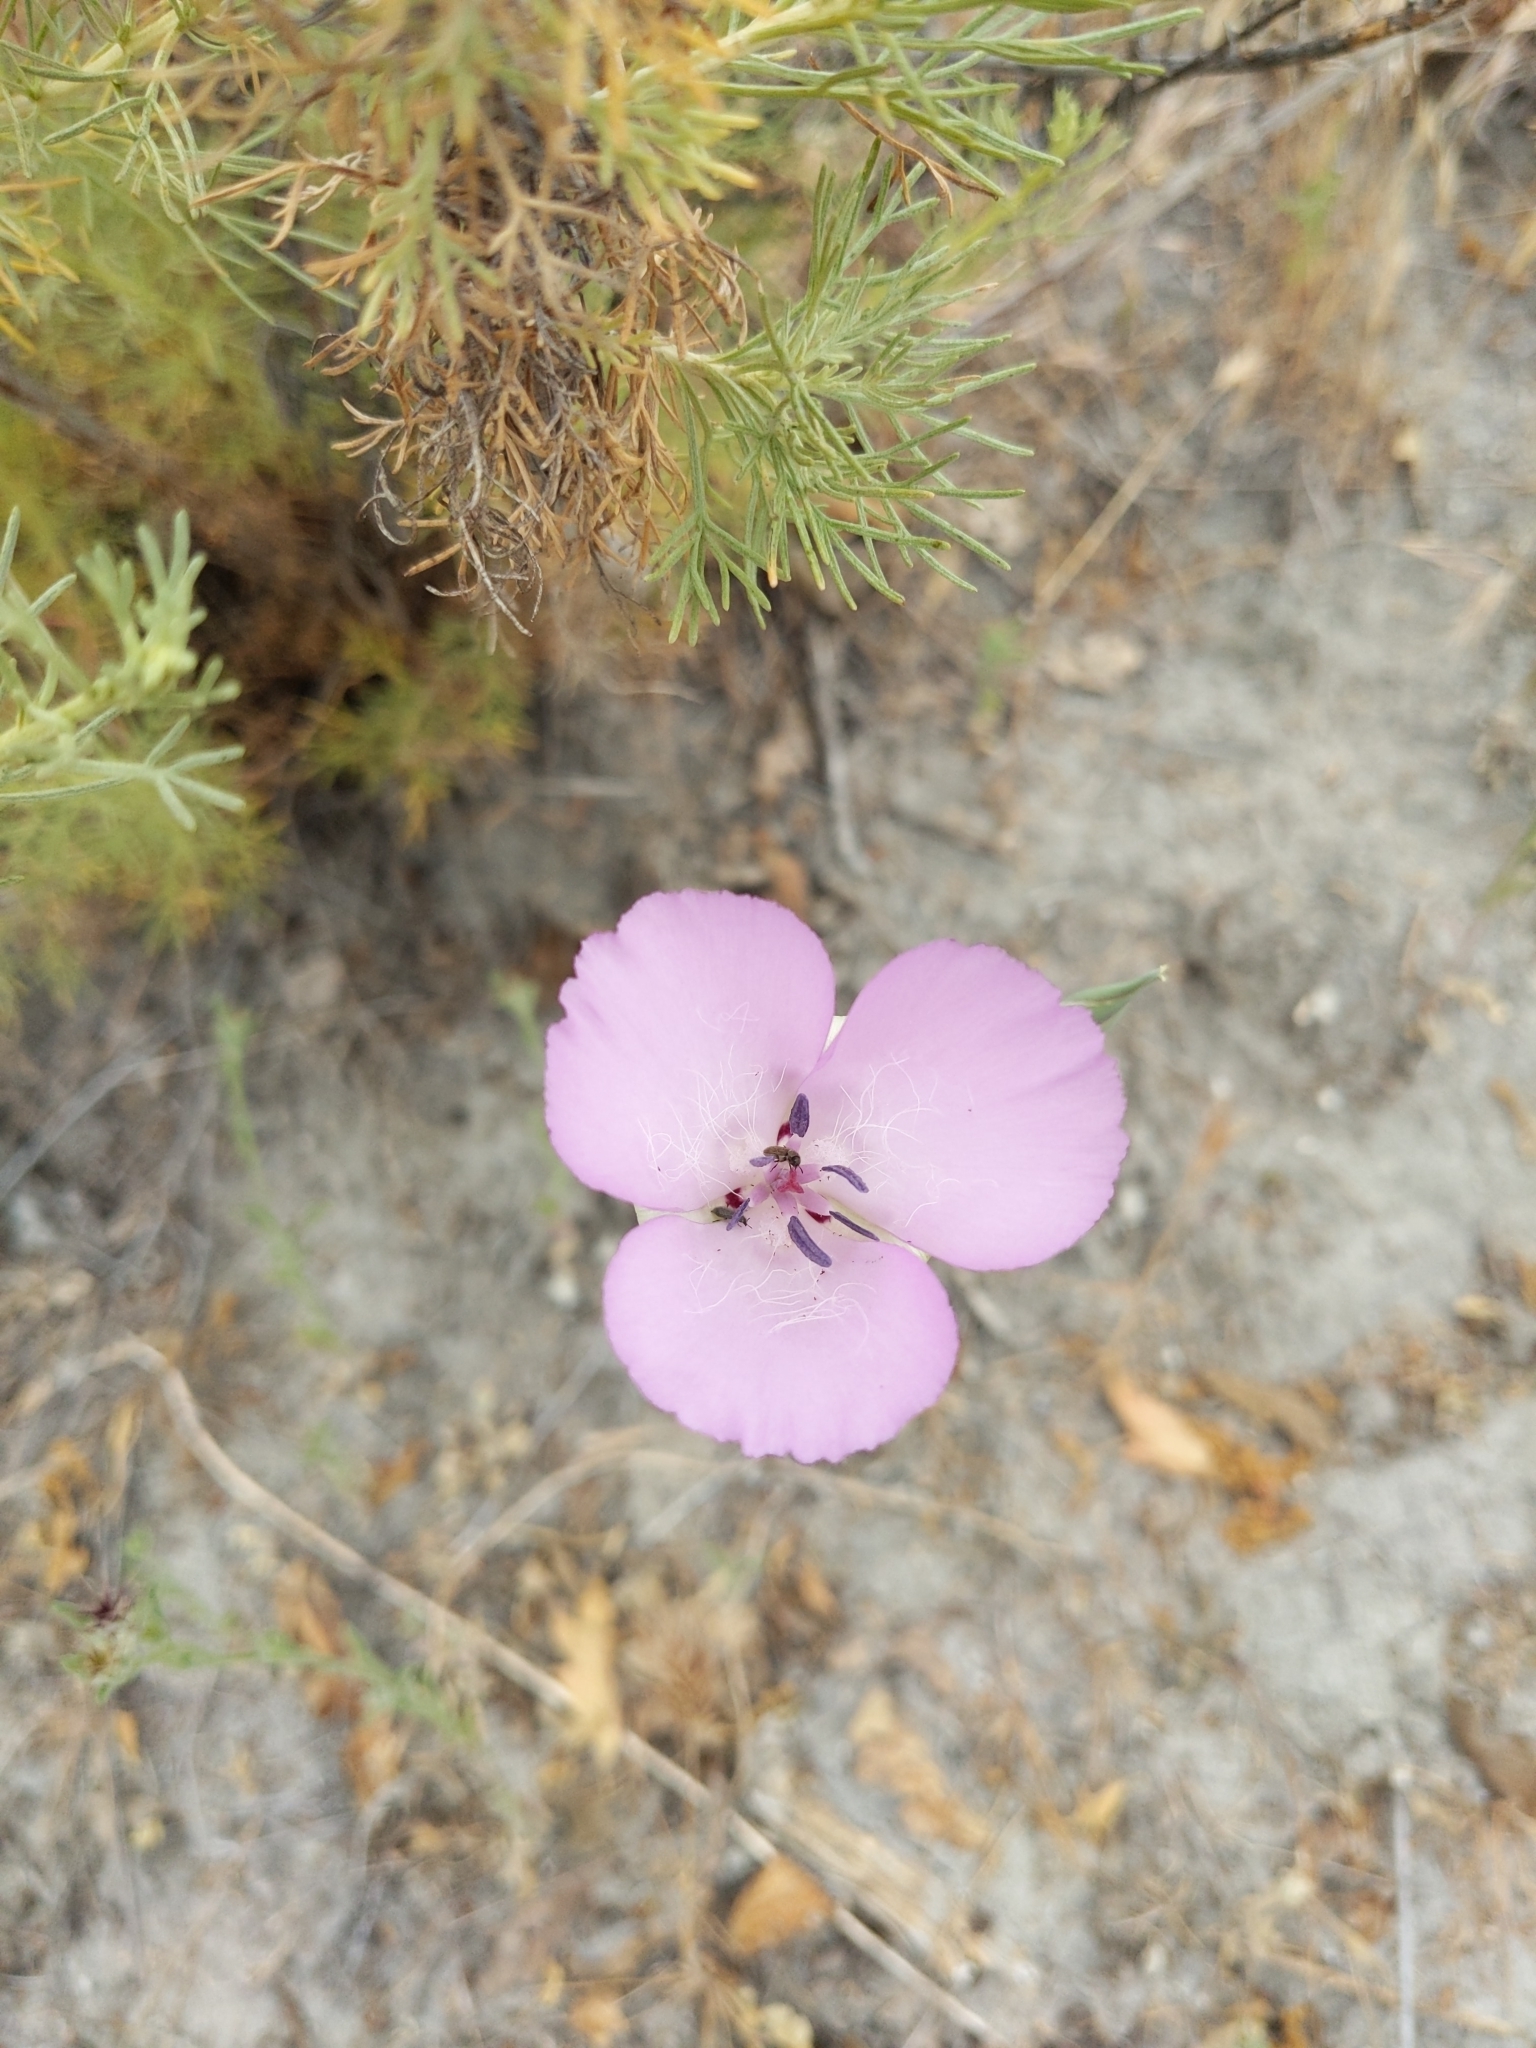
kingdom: Plantae
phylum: Tracheophyta
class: Liliopsida
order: Liliales
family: Liliaceae
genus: Calochortus
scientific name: Calochortus splendens
